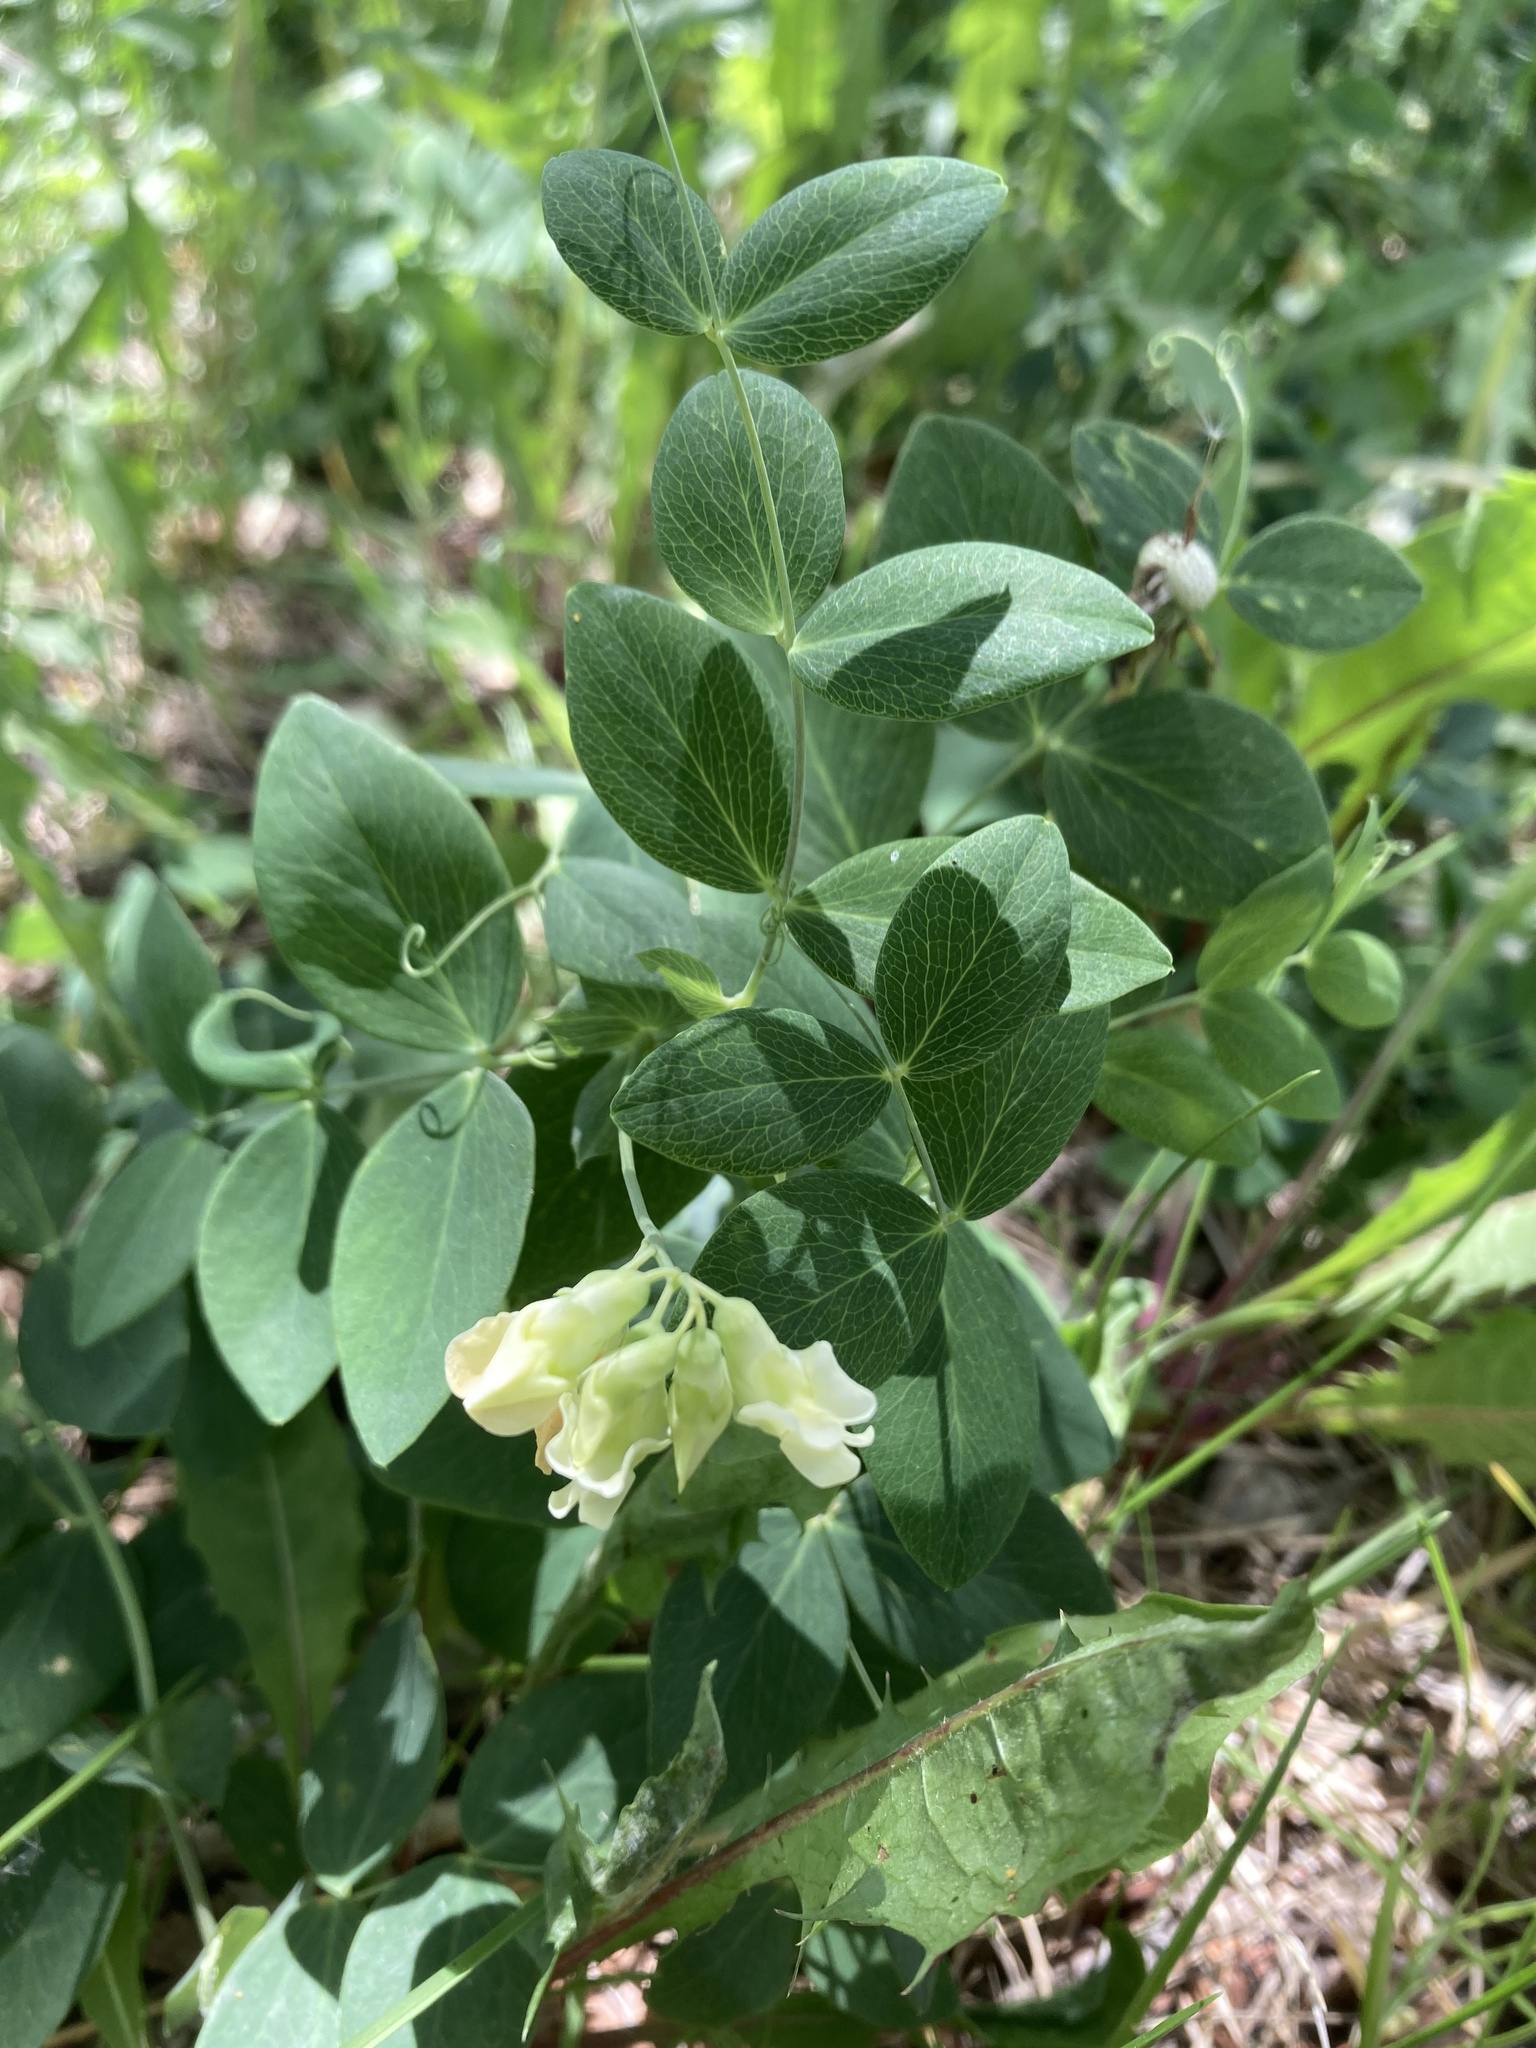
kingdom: Plantae
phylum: Tracheophyta
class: Magnoliopsida
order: Fabales
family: Fabaceae
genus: Lathyrus
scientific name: Lathyrus ochroleucus
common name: Pale vetchling
